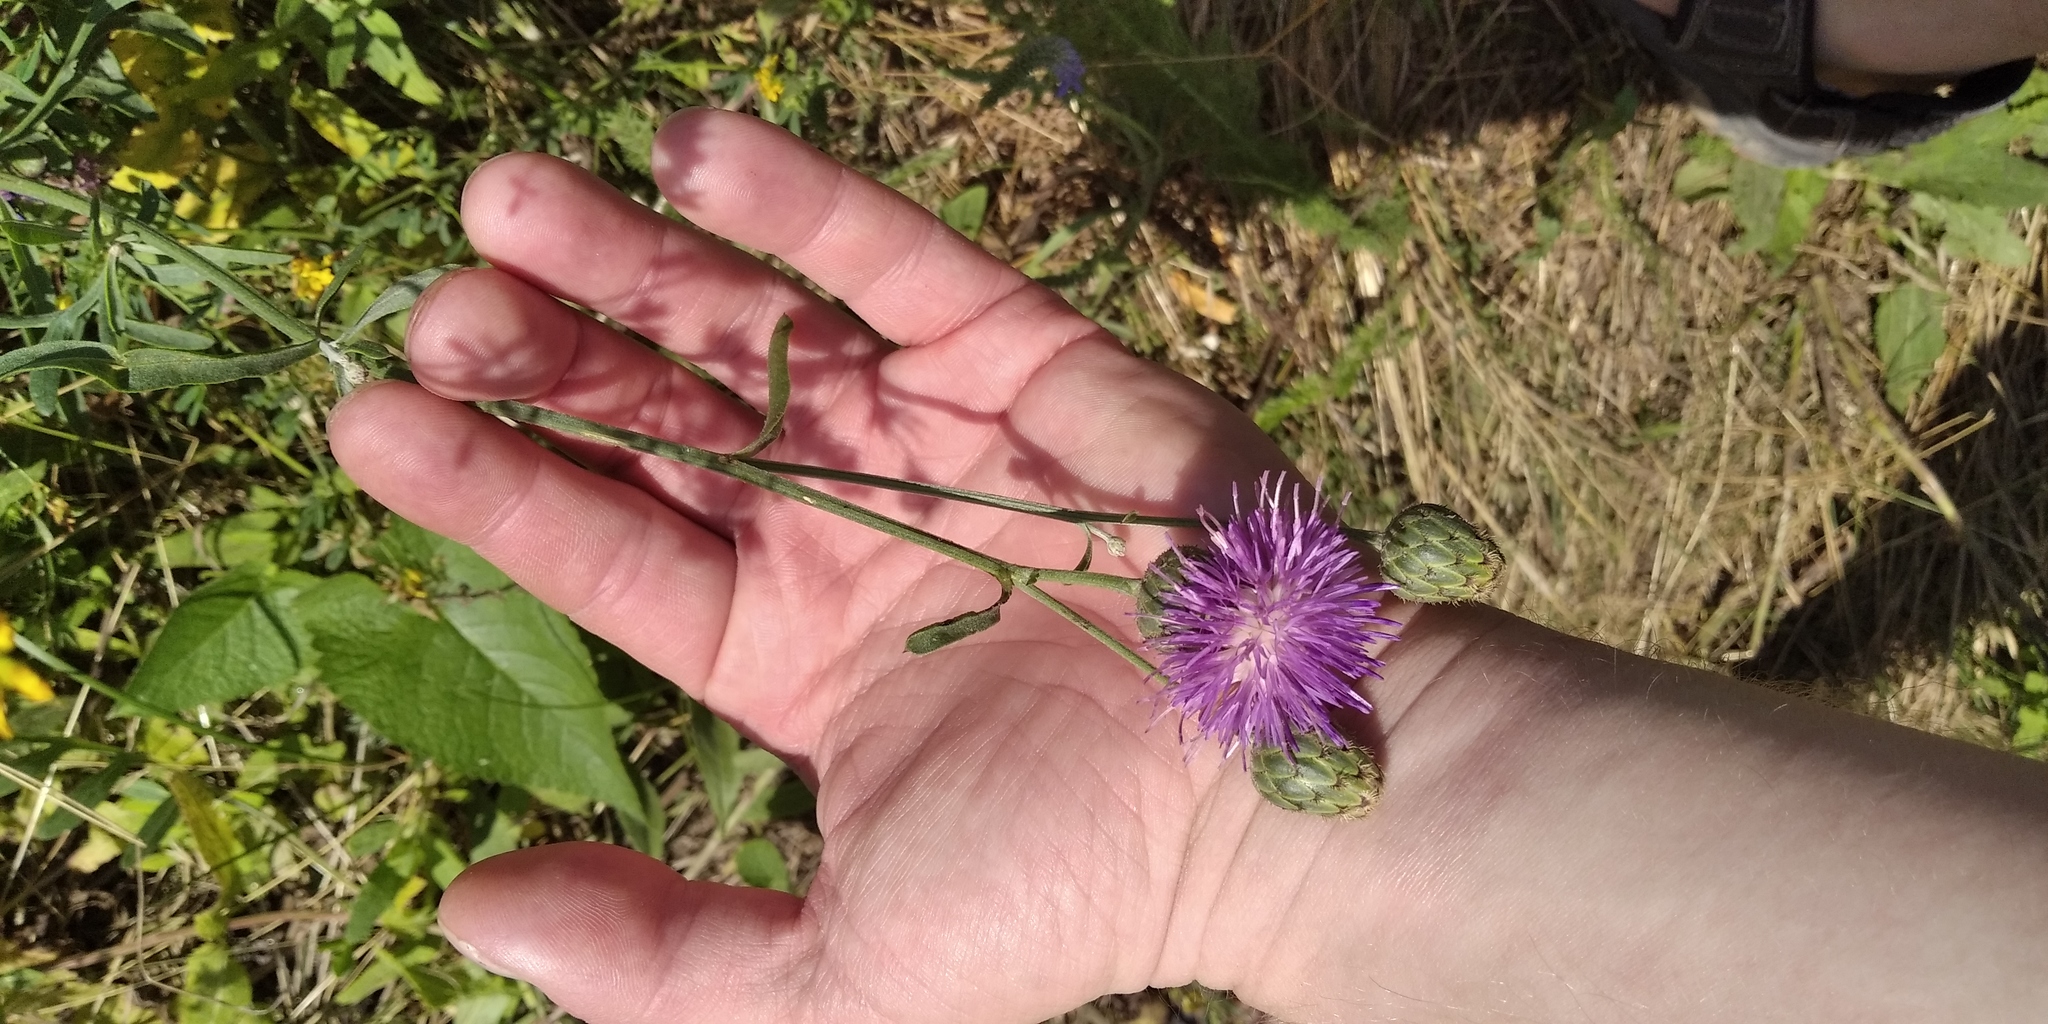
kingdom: Plantae
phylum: Tracheophyta
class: Magnoliopsida
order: Asterales
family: Asteraceae
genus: Centaurea
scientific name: Centaurea adpressa
